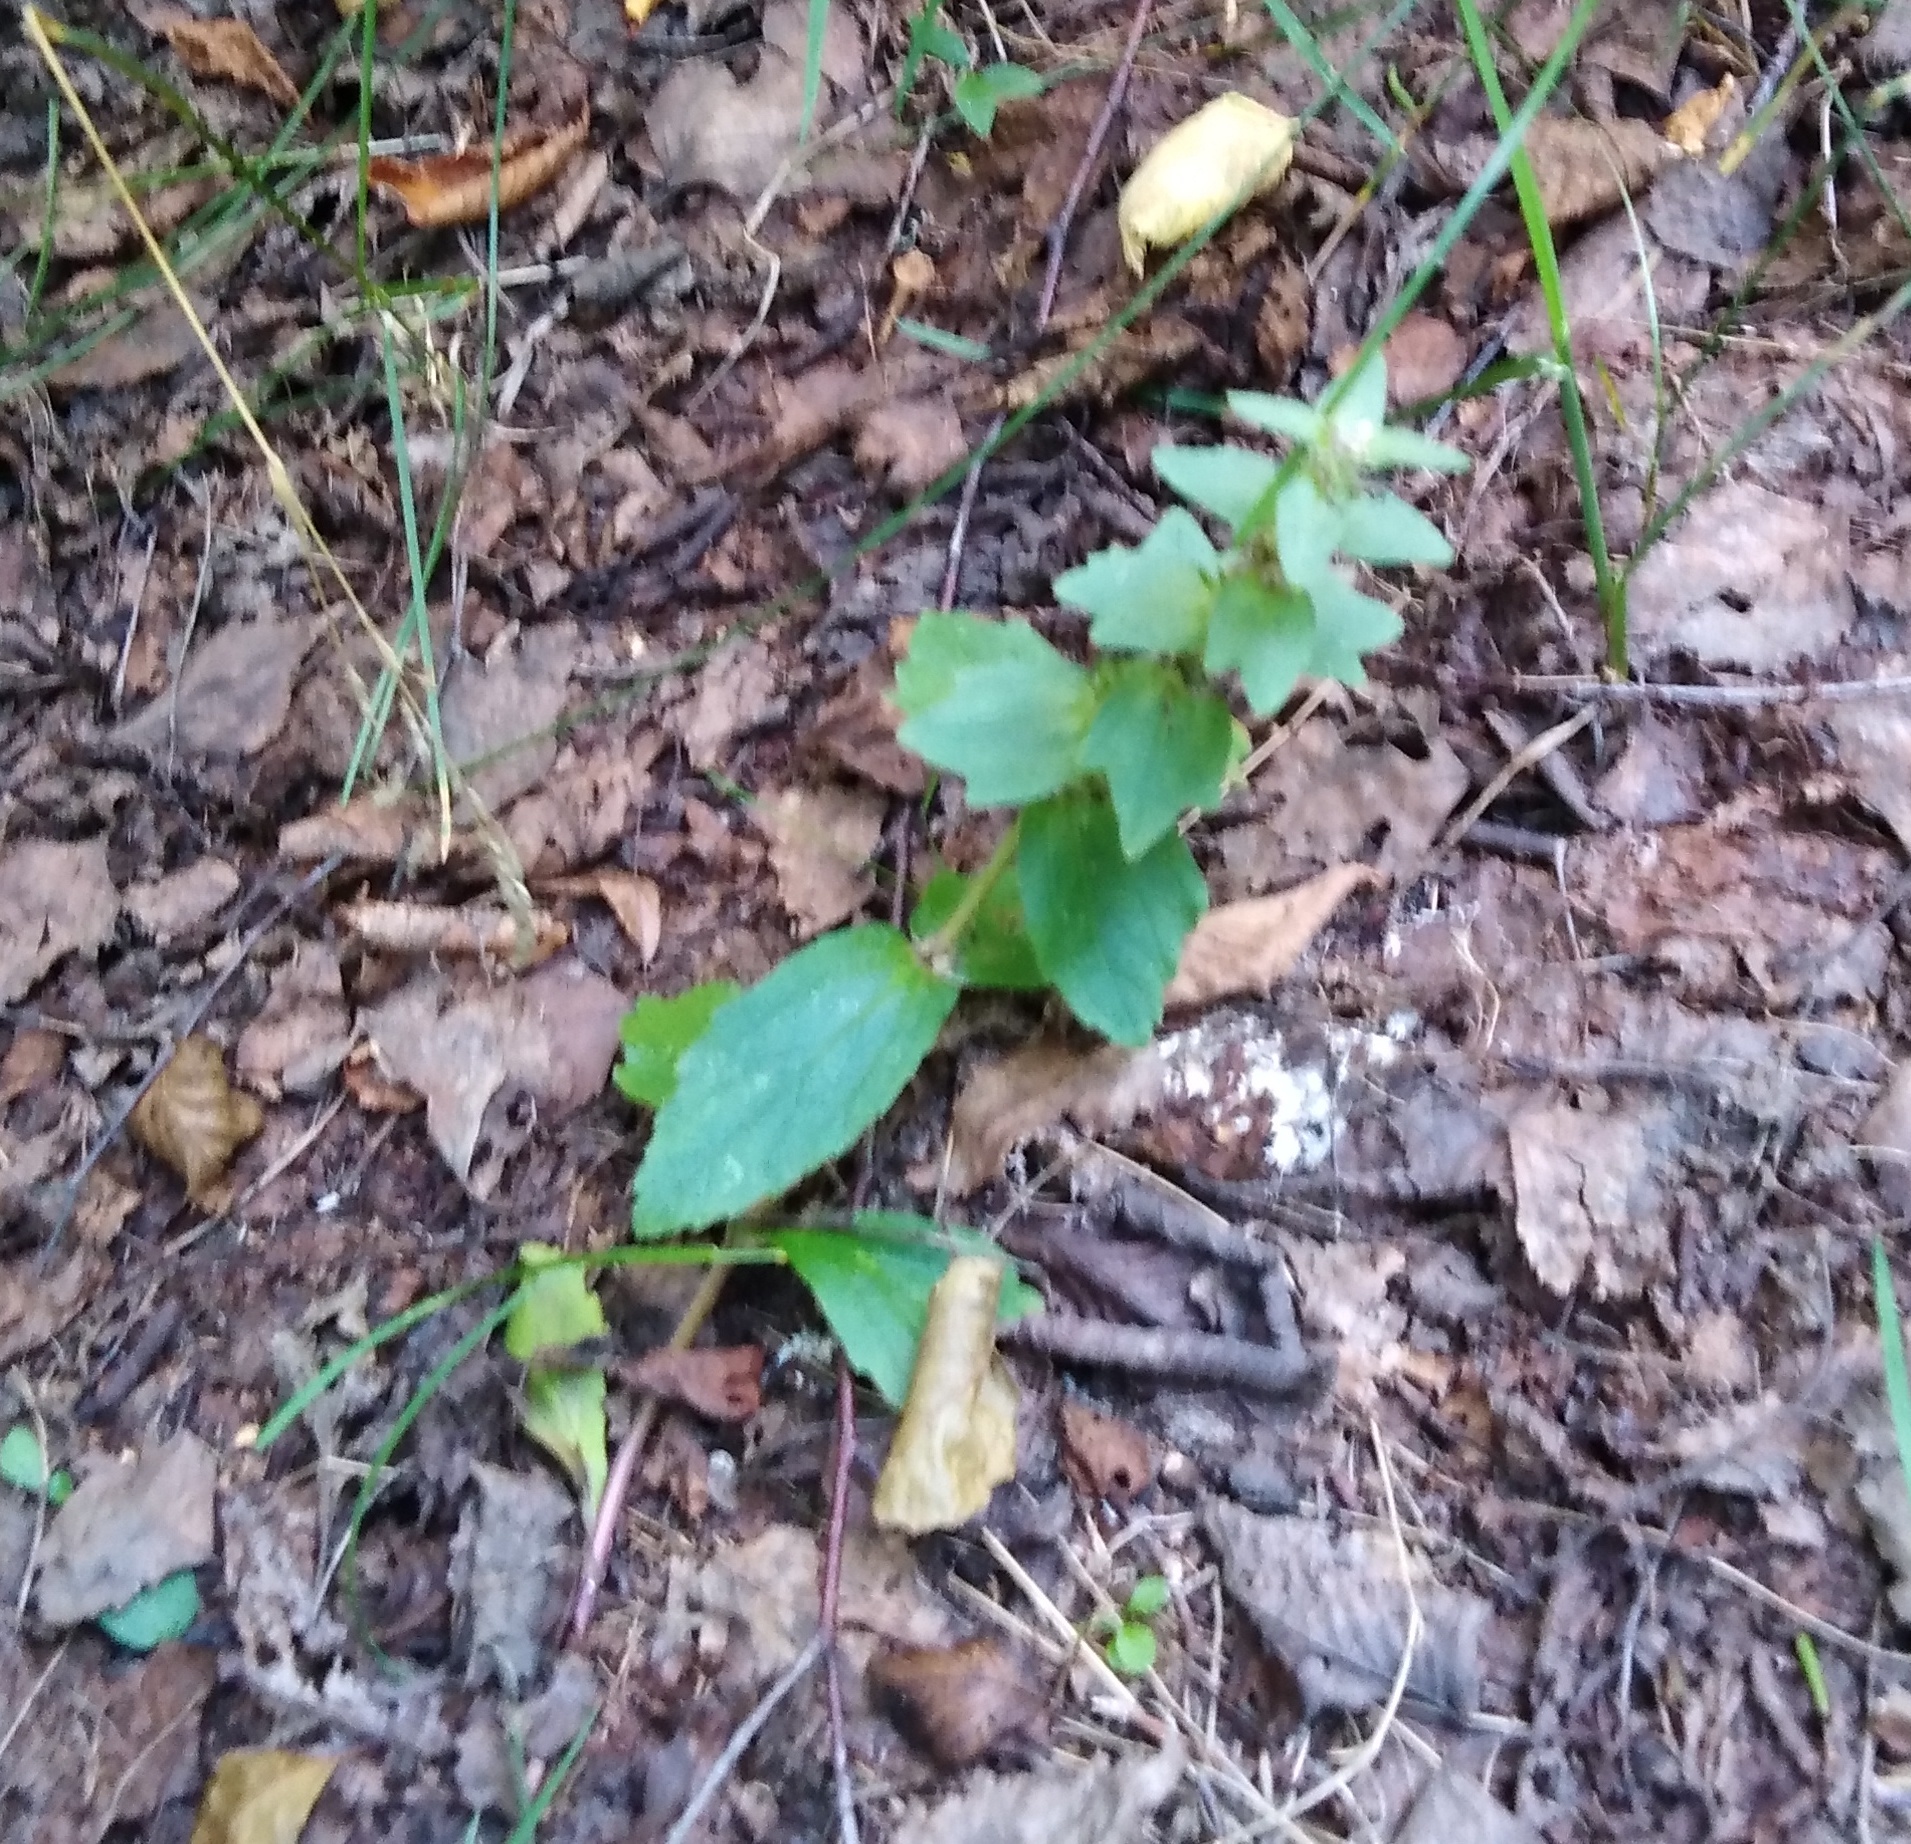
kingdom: Plantae
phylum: Tracheophyta
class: Magnoliopsida
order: Lamiales
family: Lamiaceae
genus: Ajuga
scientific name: Ajuga genevensis
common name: Blue bugle
